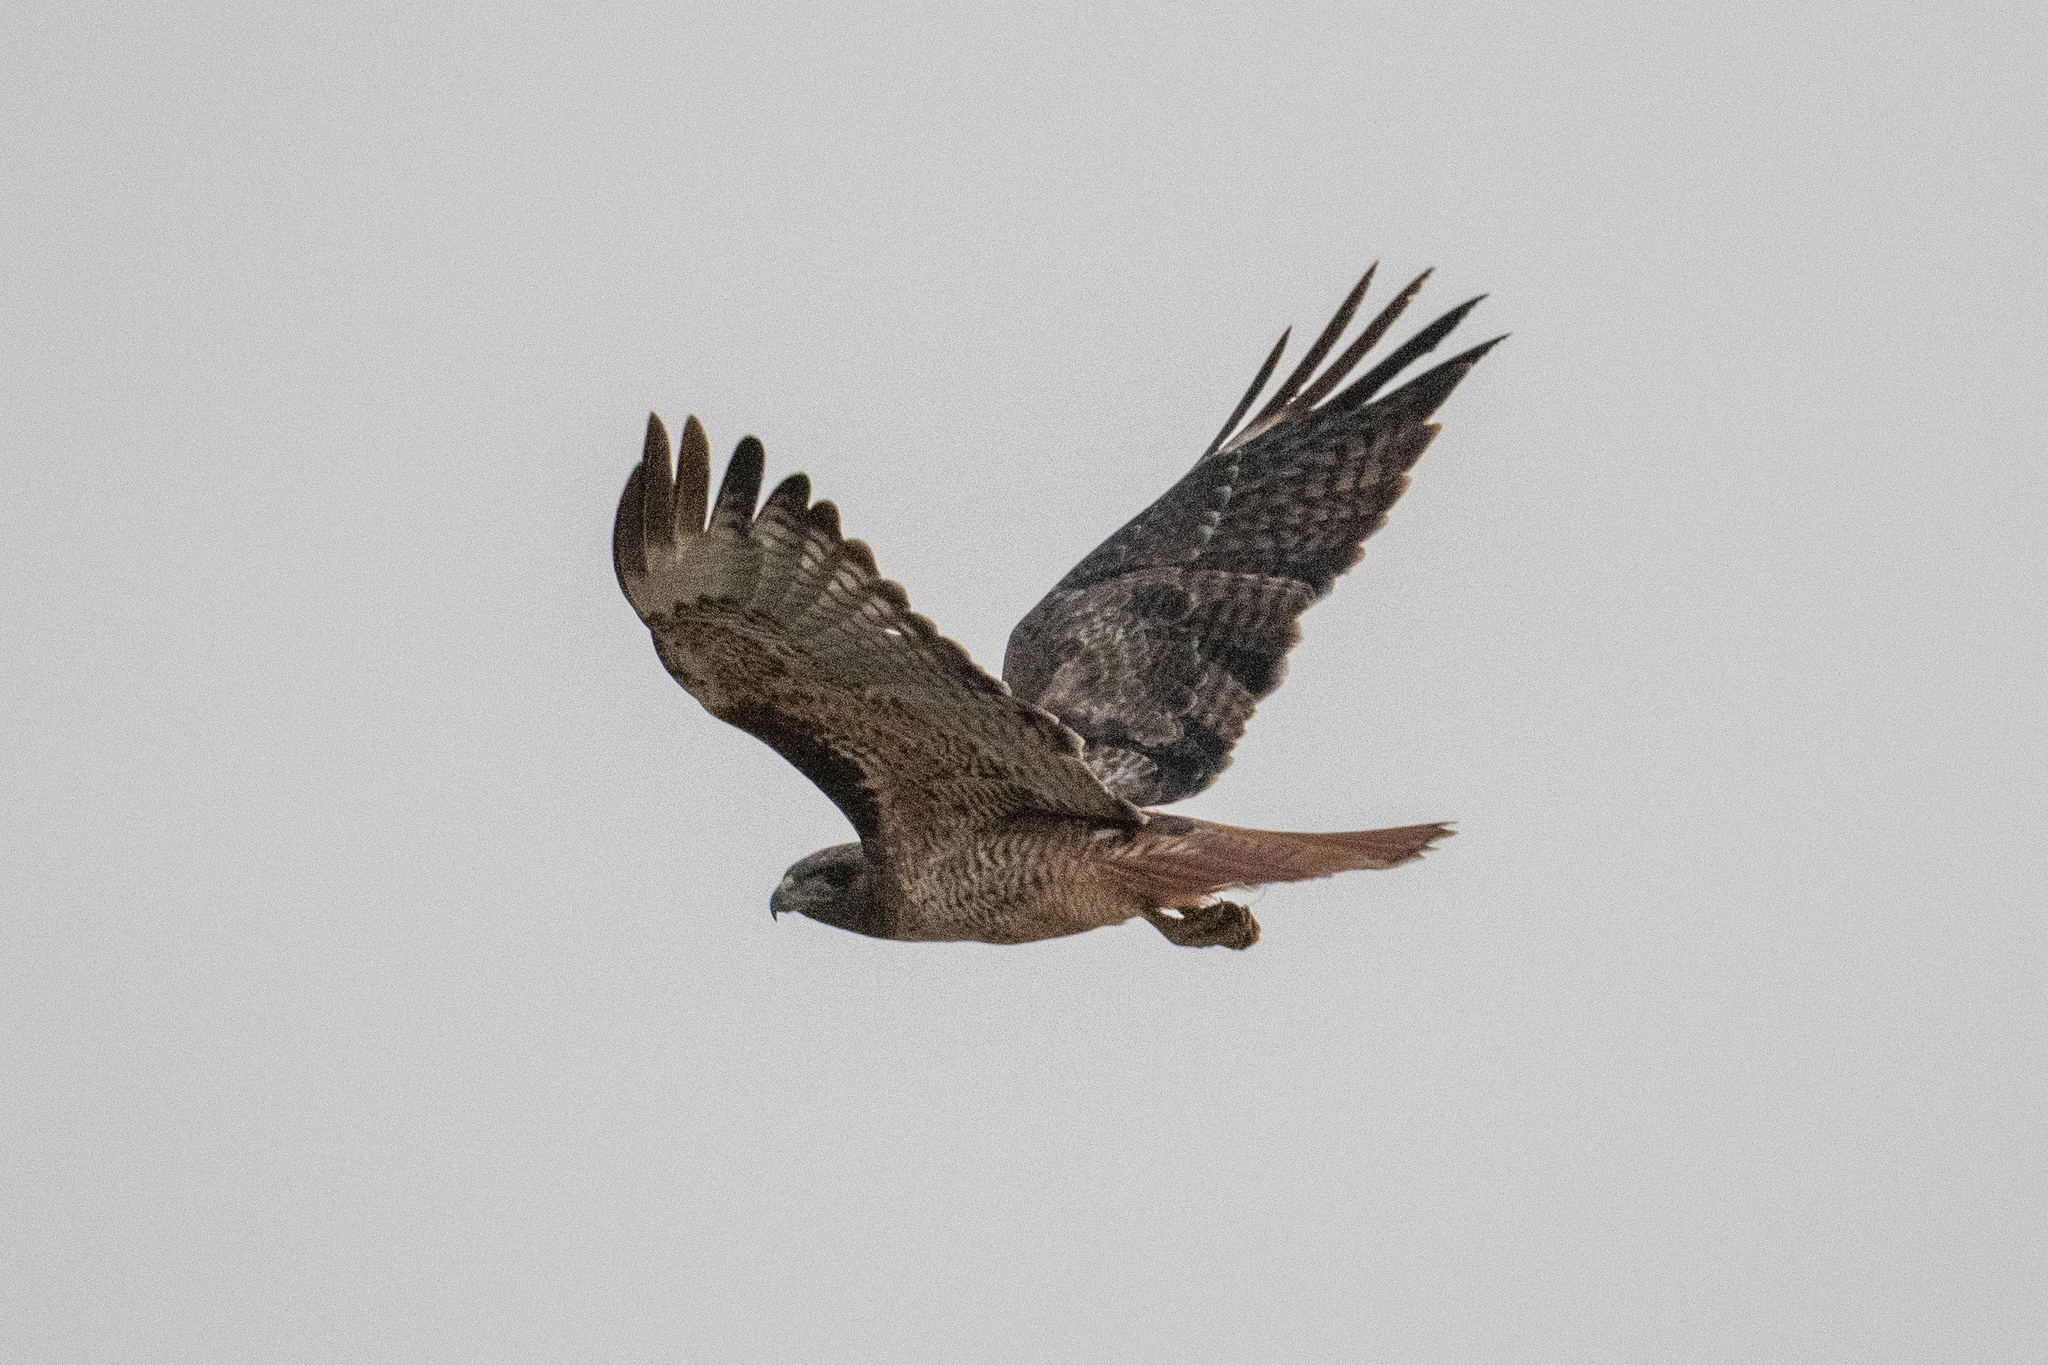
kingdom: Animalia
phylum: Chordata
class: Aves
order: Accipitriformes
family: Accipitridae
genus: Buteo
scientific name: Buteo jamaicensis
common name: Red-tailed hawk
